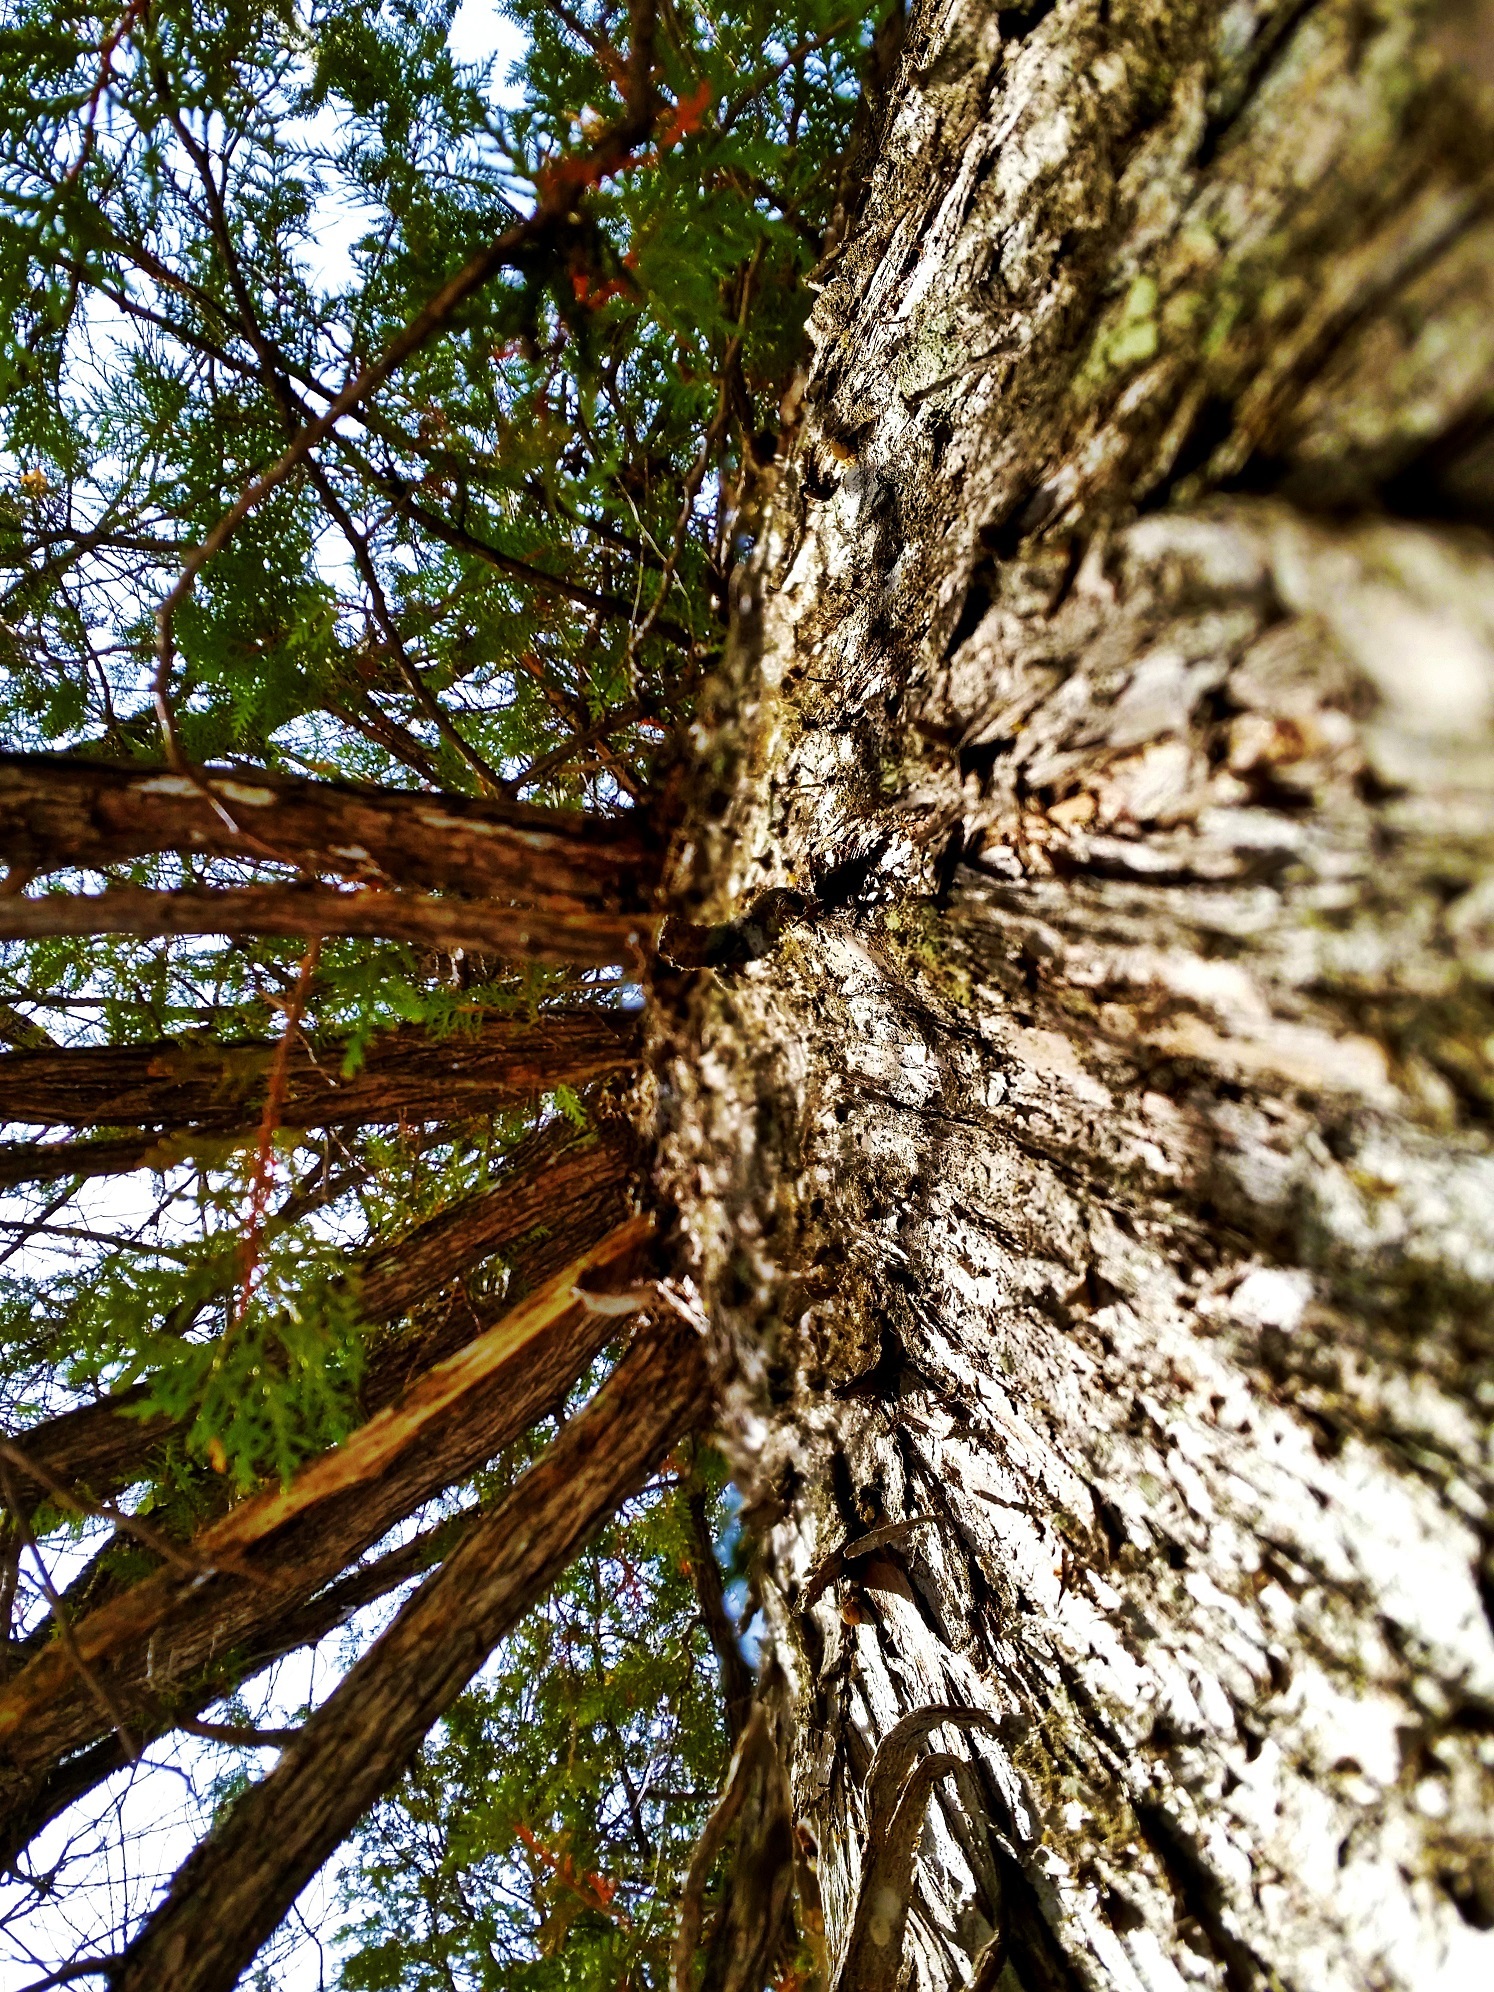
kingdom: Plantae
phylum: Tracheophyta
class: Pinopsida
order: Pinales
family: Cupressaceae
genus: Thuja
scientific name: Thuja occidentalis
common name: Northern white-cedar
